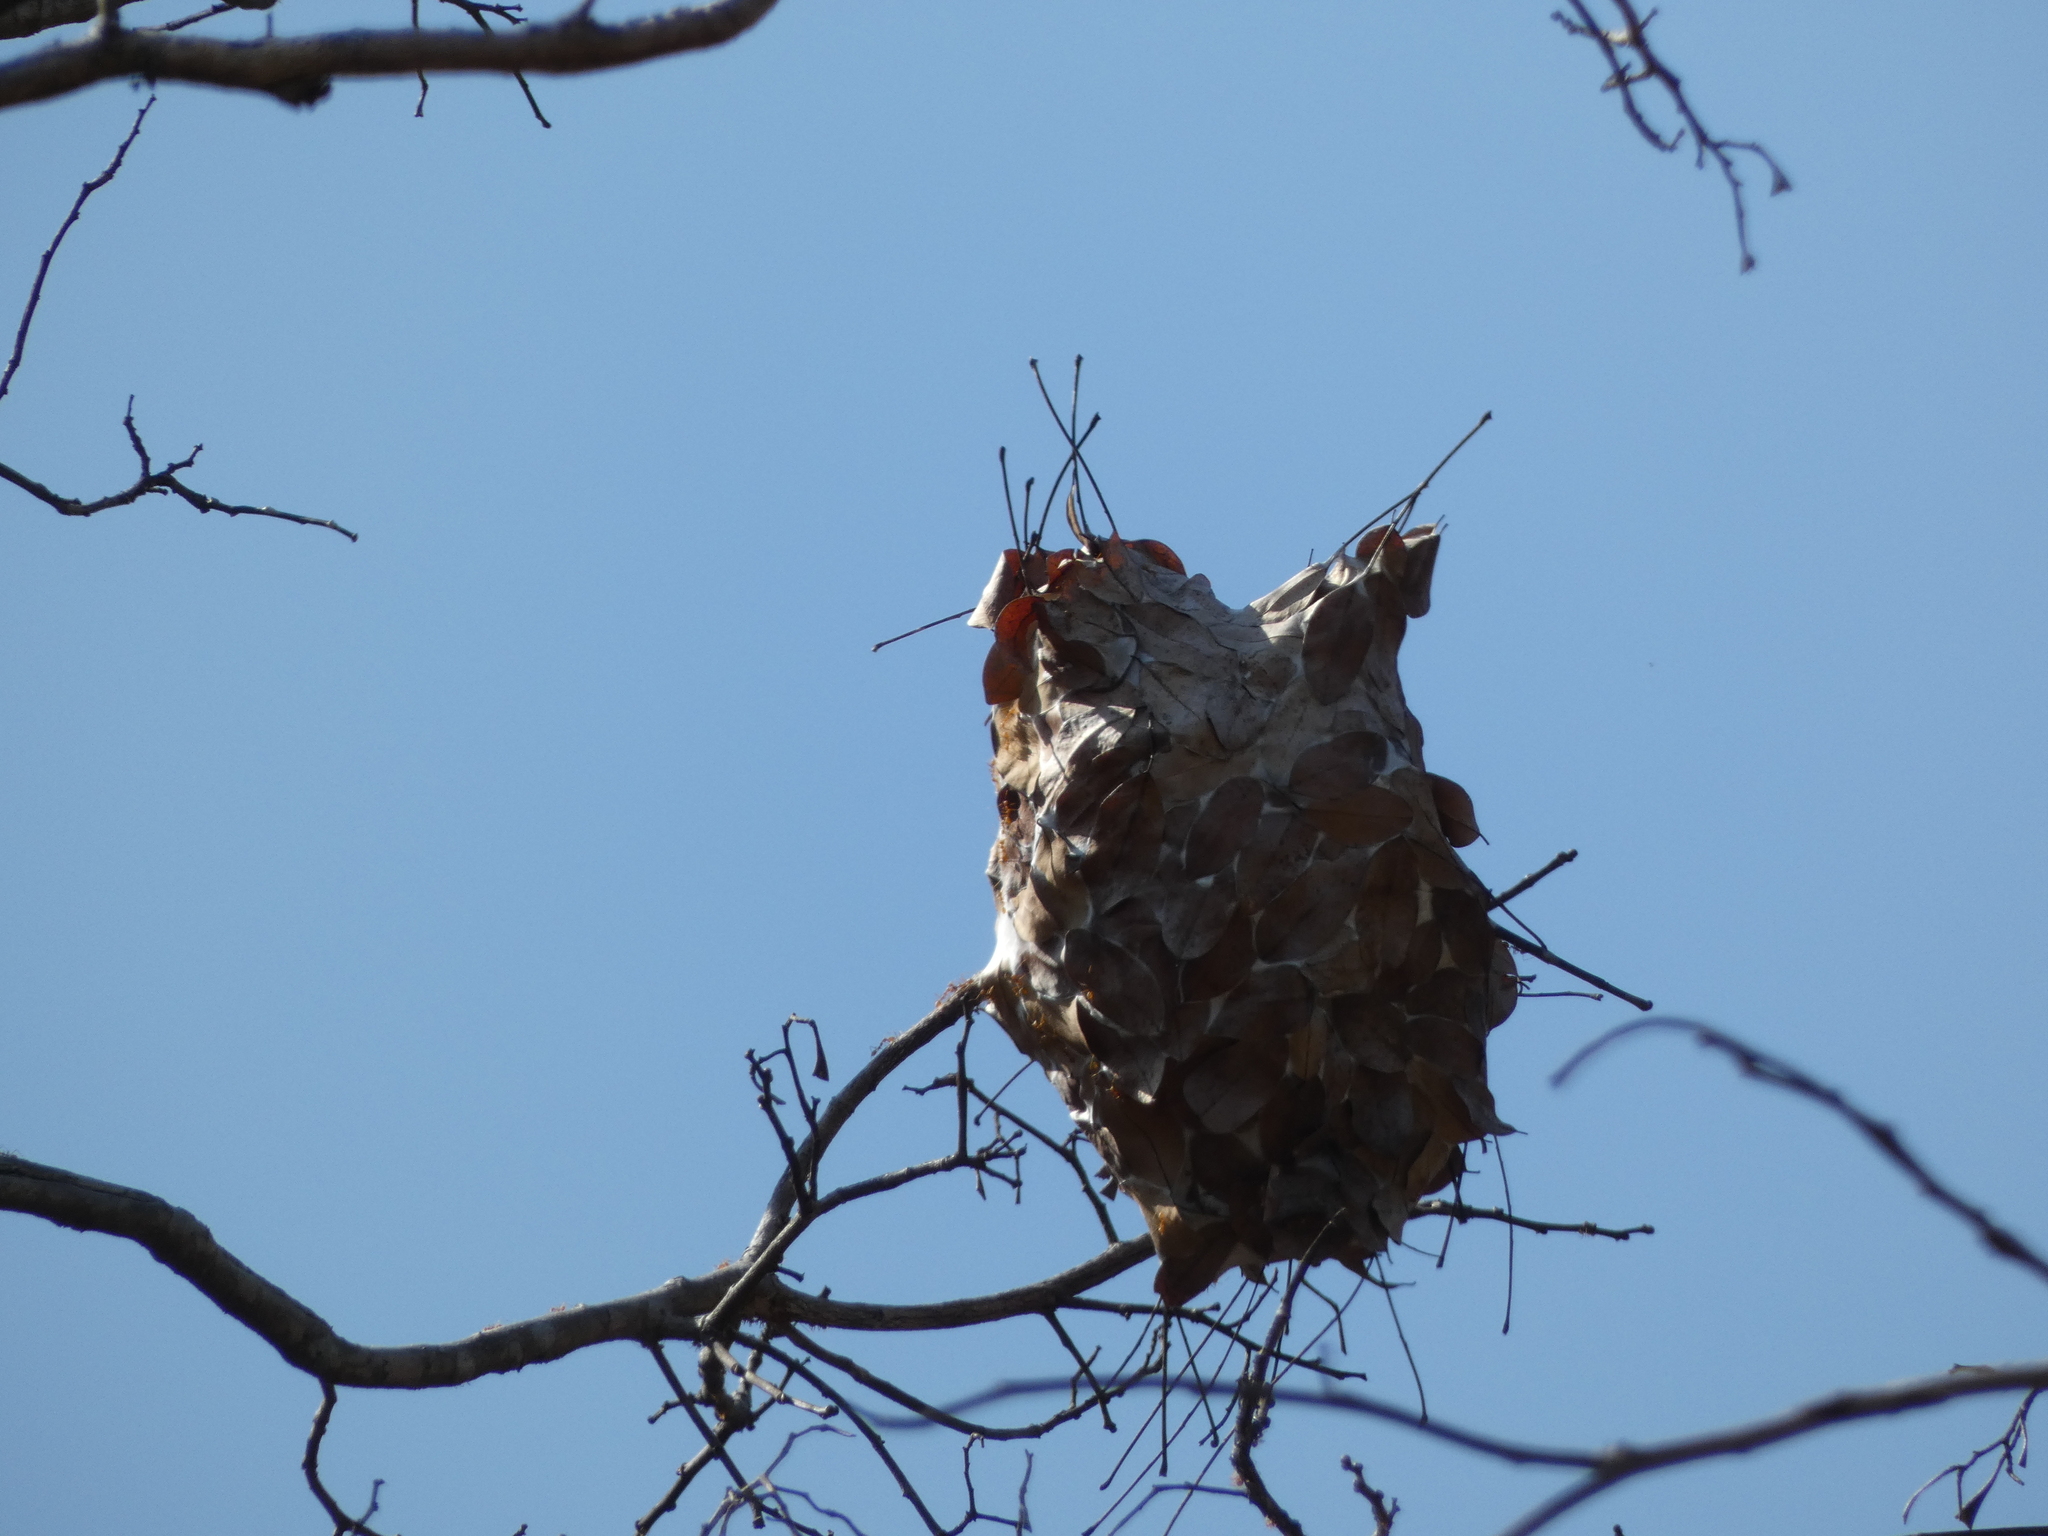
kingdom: Animalia
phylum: Arthropoda
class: Insecta
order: Hymenoptera
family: Formicidae
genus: Oecophylla
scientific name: Oecophylla smaragdina
